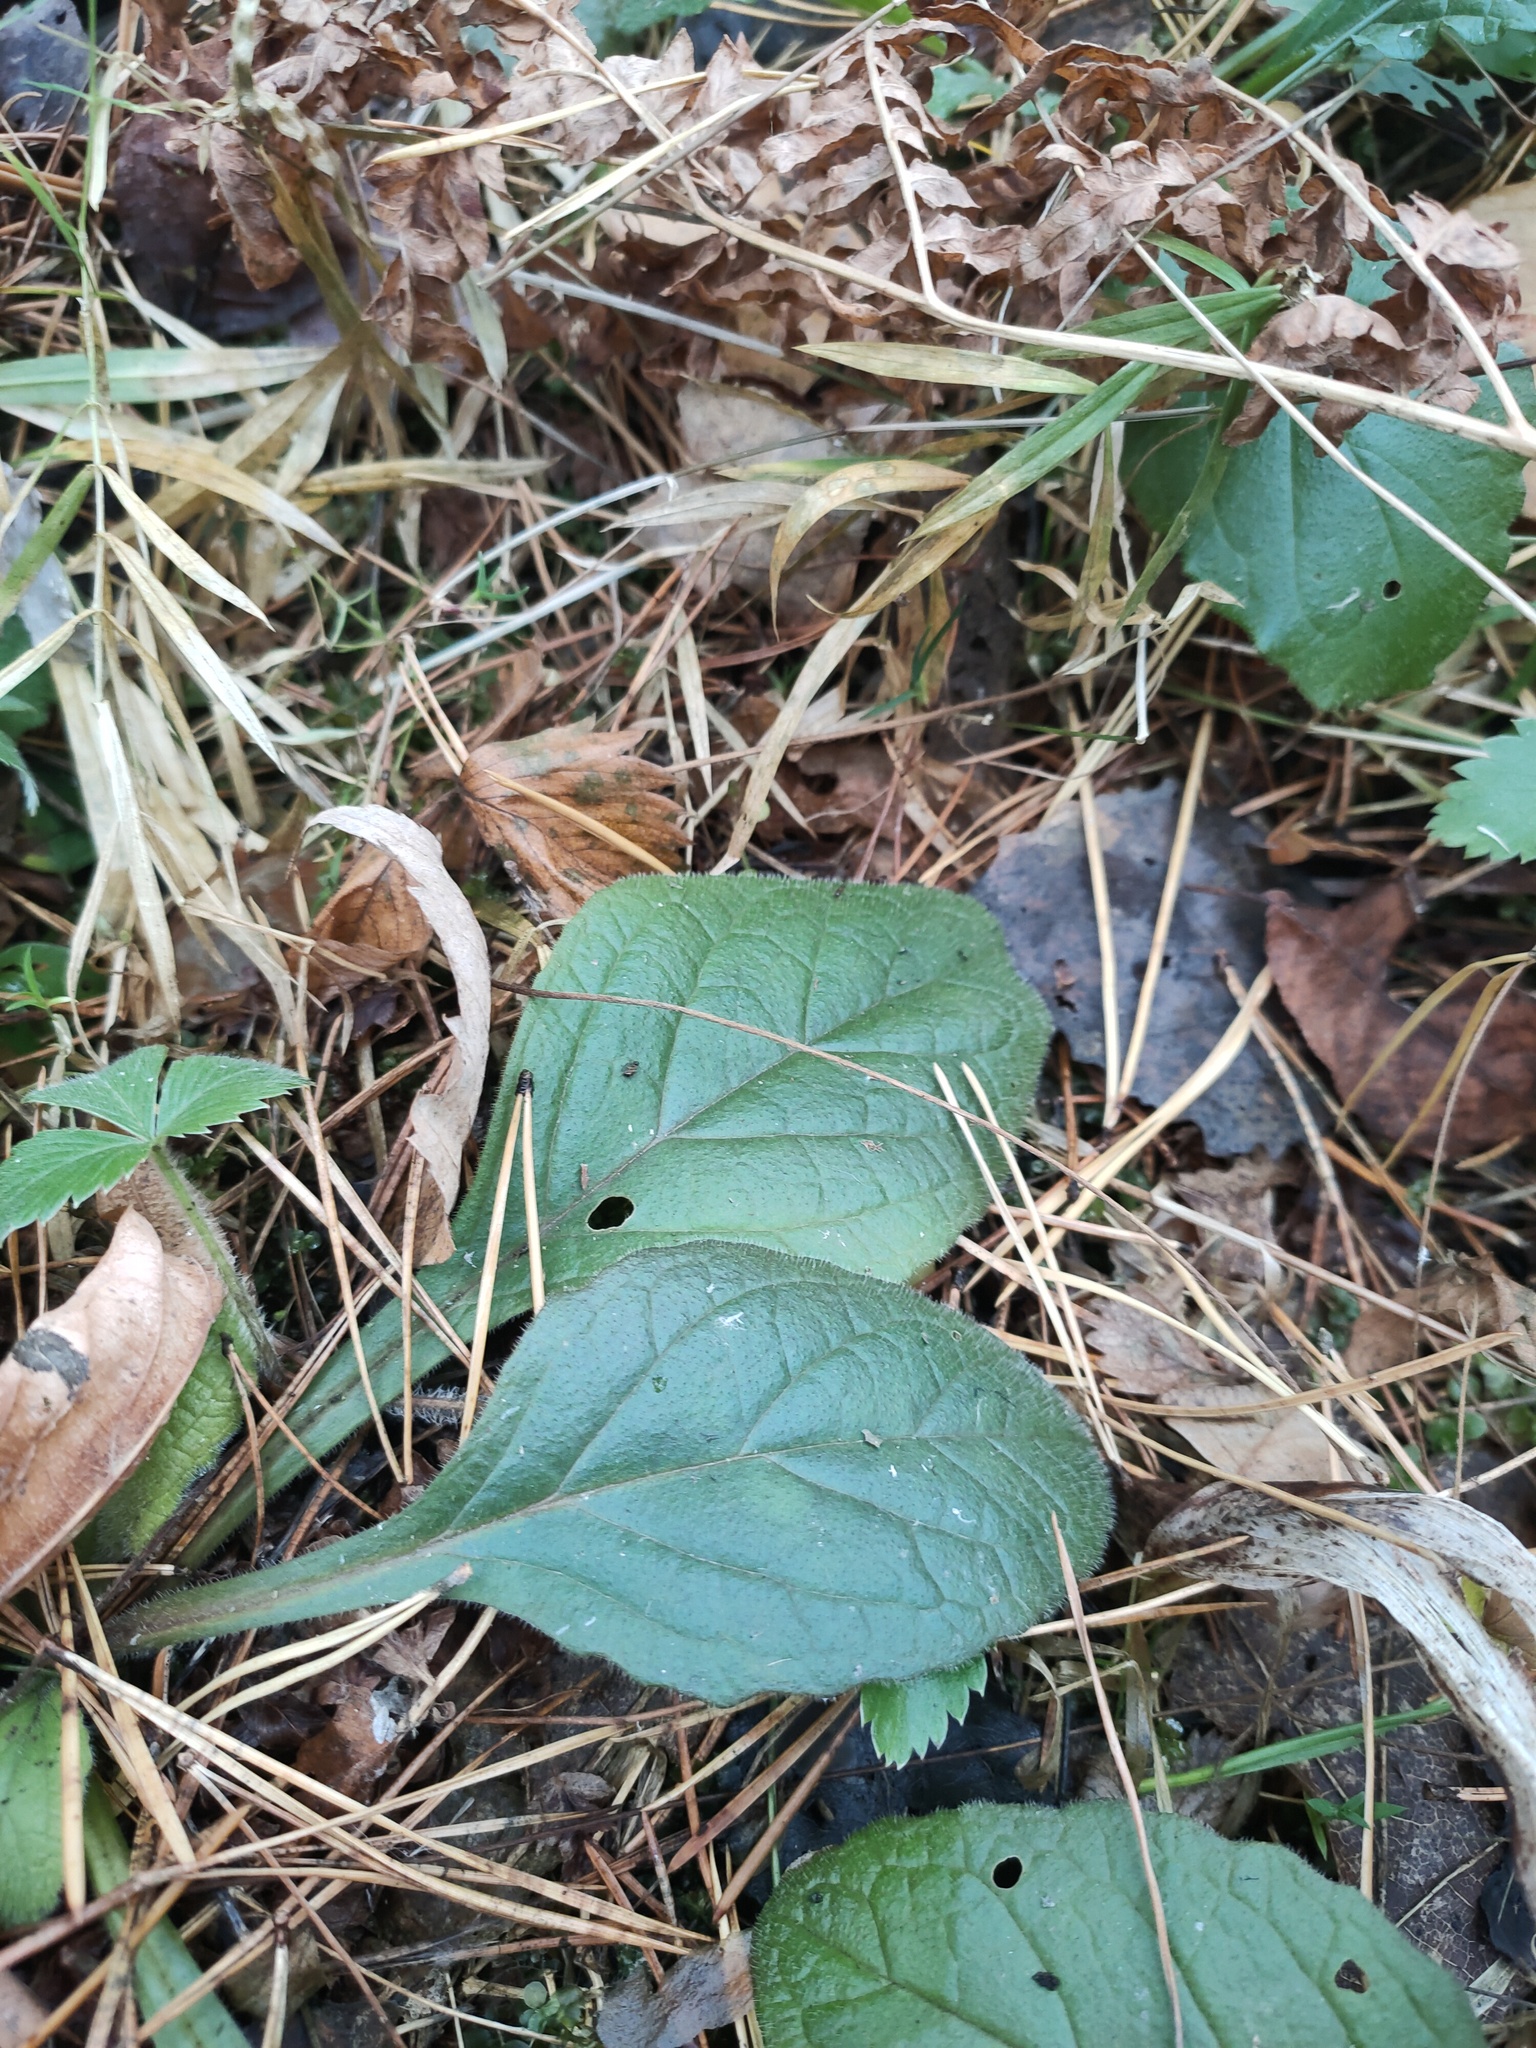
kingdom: Plantae
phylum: Tracheophyta
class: Magnoliopsida
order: Lamiales
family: Lamiaceae
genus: Ajuga
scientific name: Ajuga reptans
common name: Bugle
